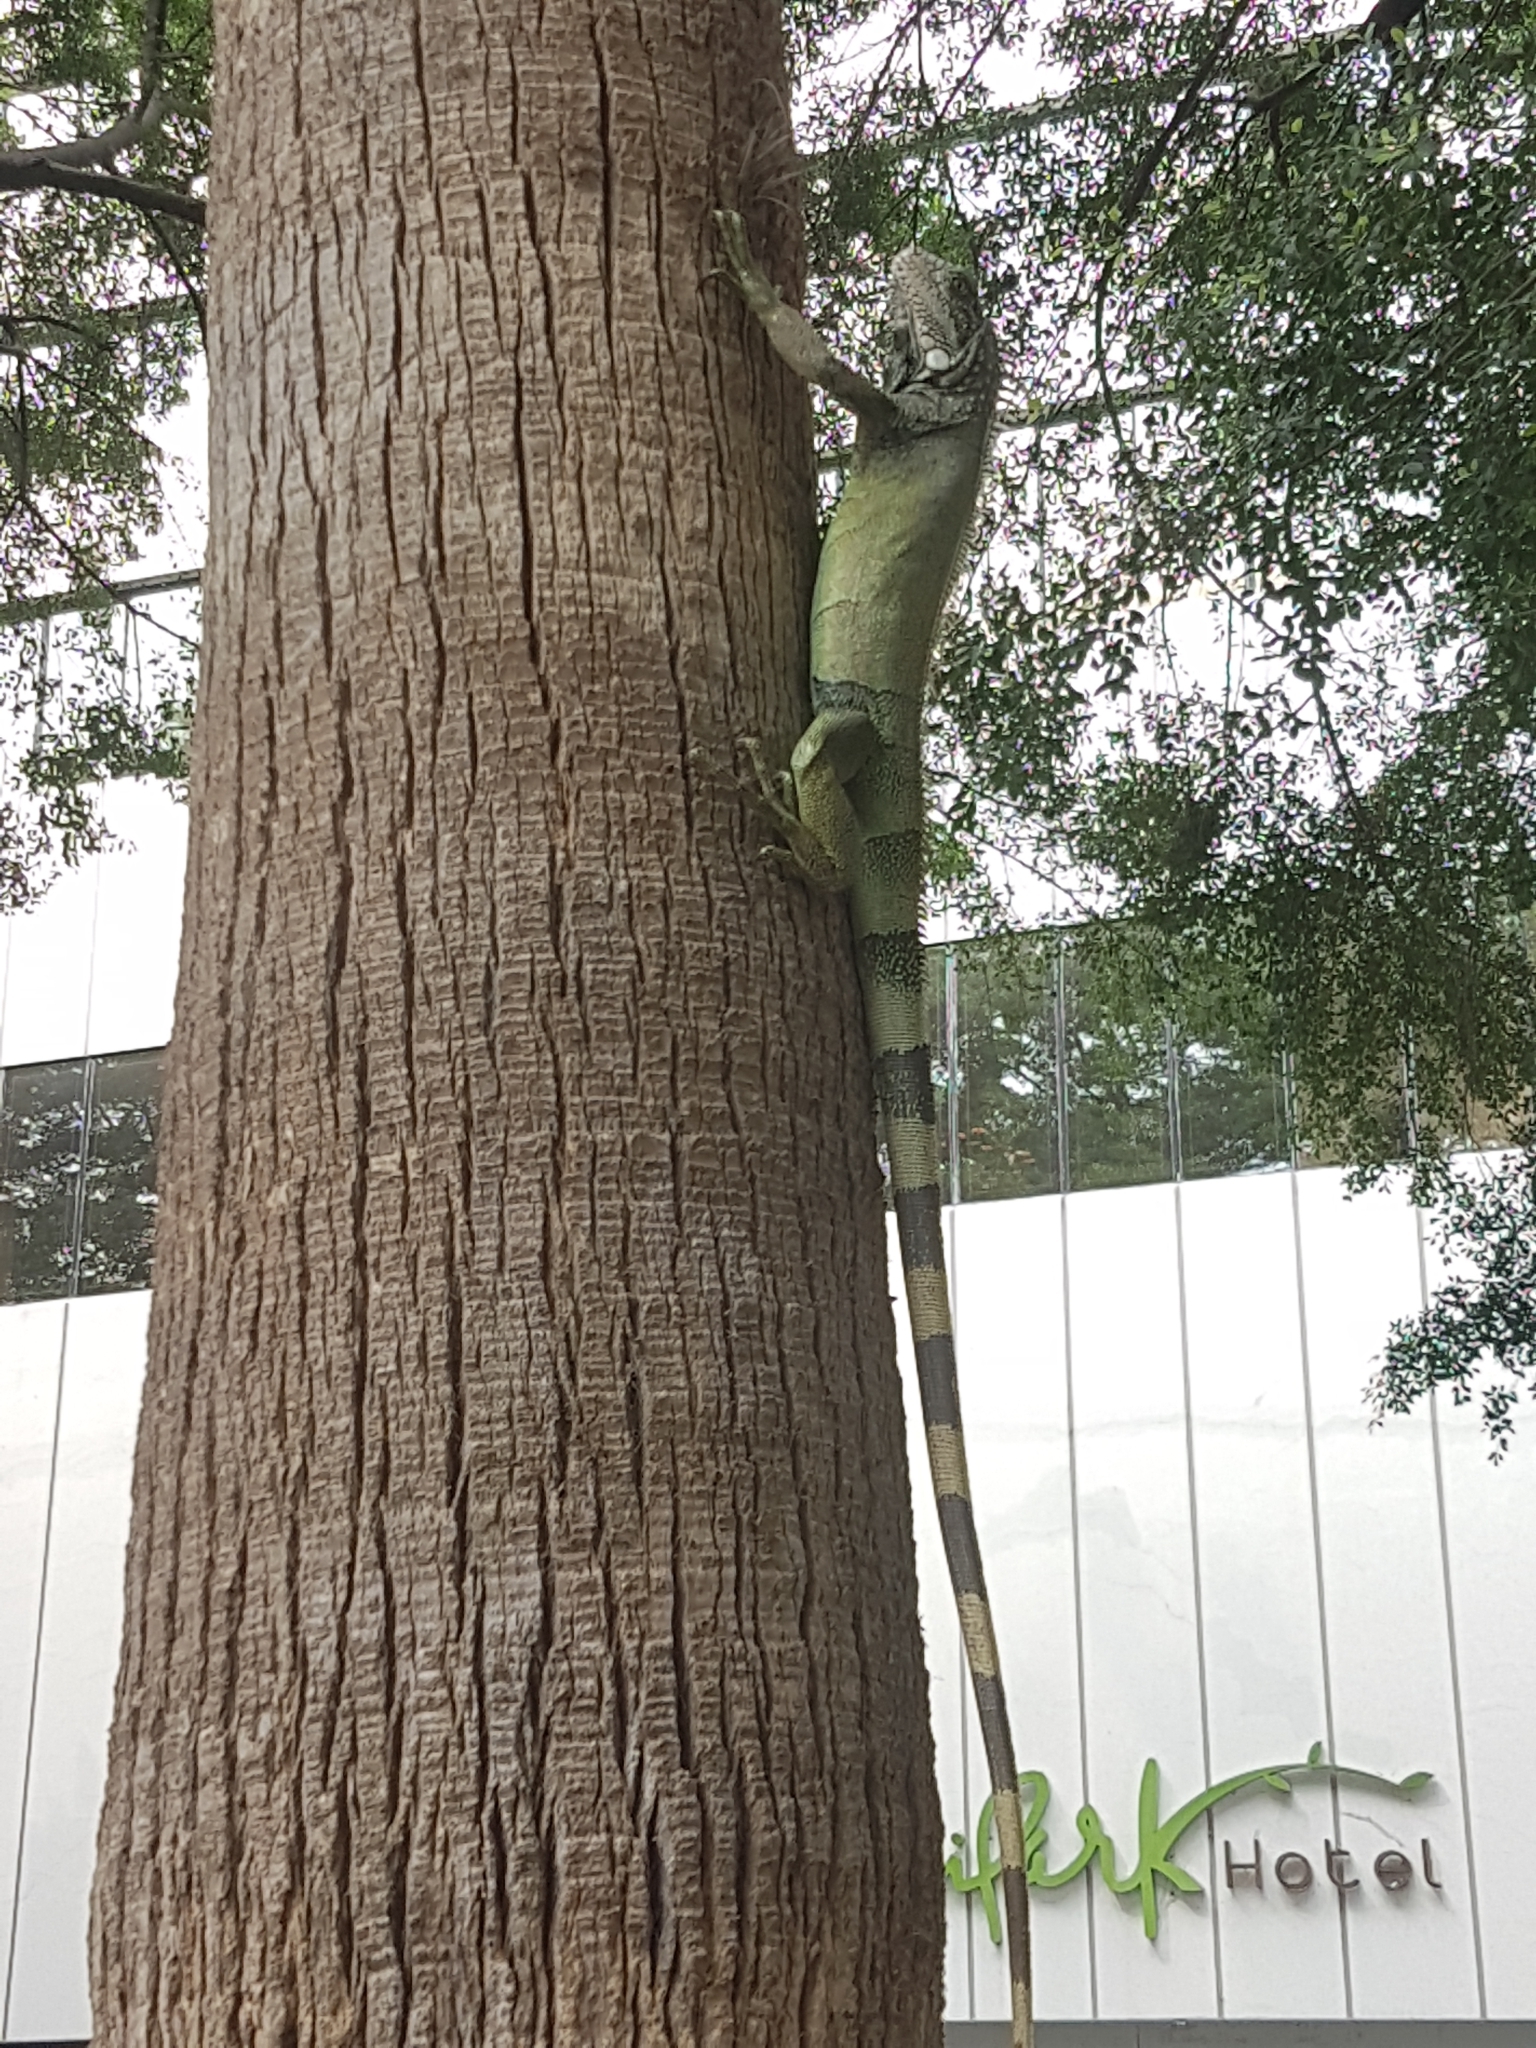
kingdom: Animalia
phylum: Chordata
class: Squamata
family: Iguanidae
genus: Iguana
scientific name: Iguana iguana
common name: Green iguana
